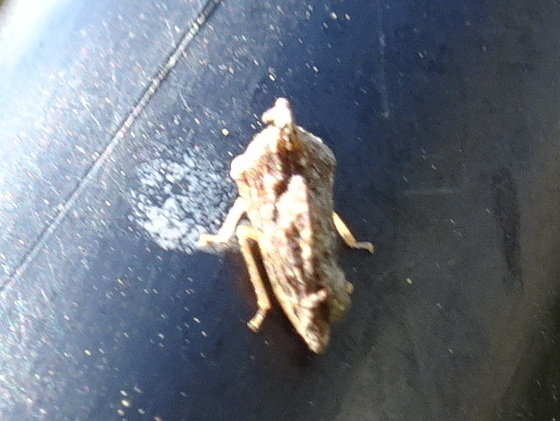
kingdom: Animalia
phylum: Arthropoda
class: Insecta
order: Hemiptera
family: Membracidae
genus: Entylia
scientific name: Entylia carinata
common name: Keeled treehopper
